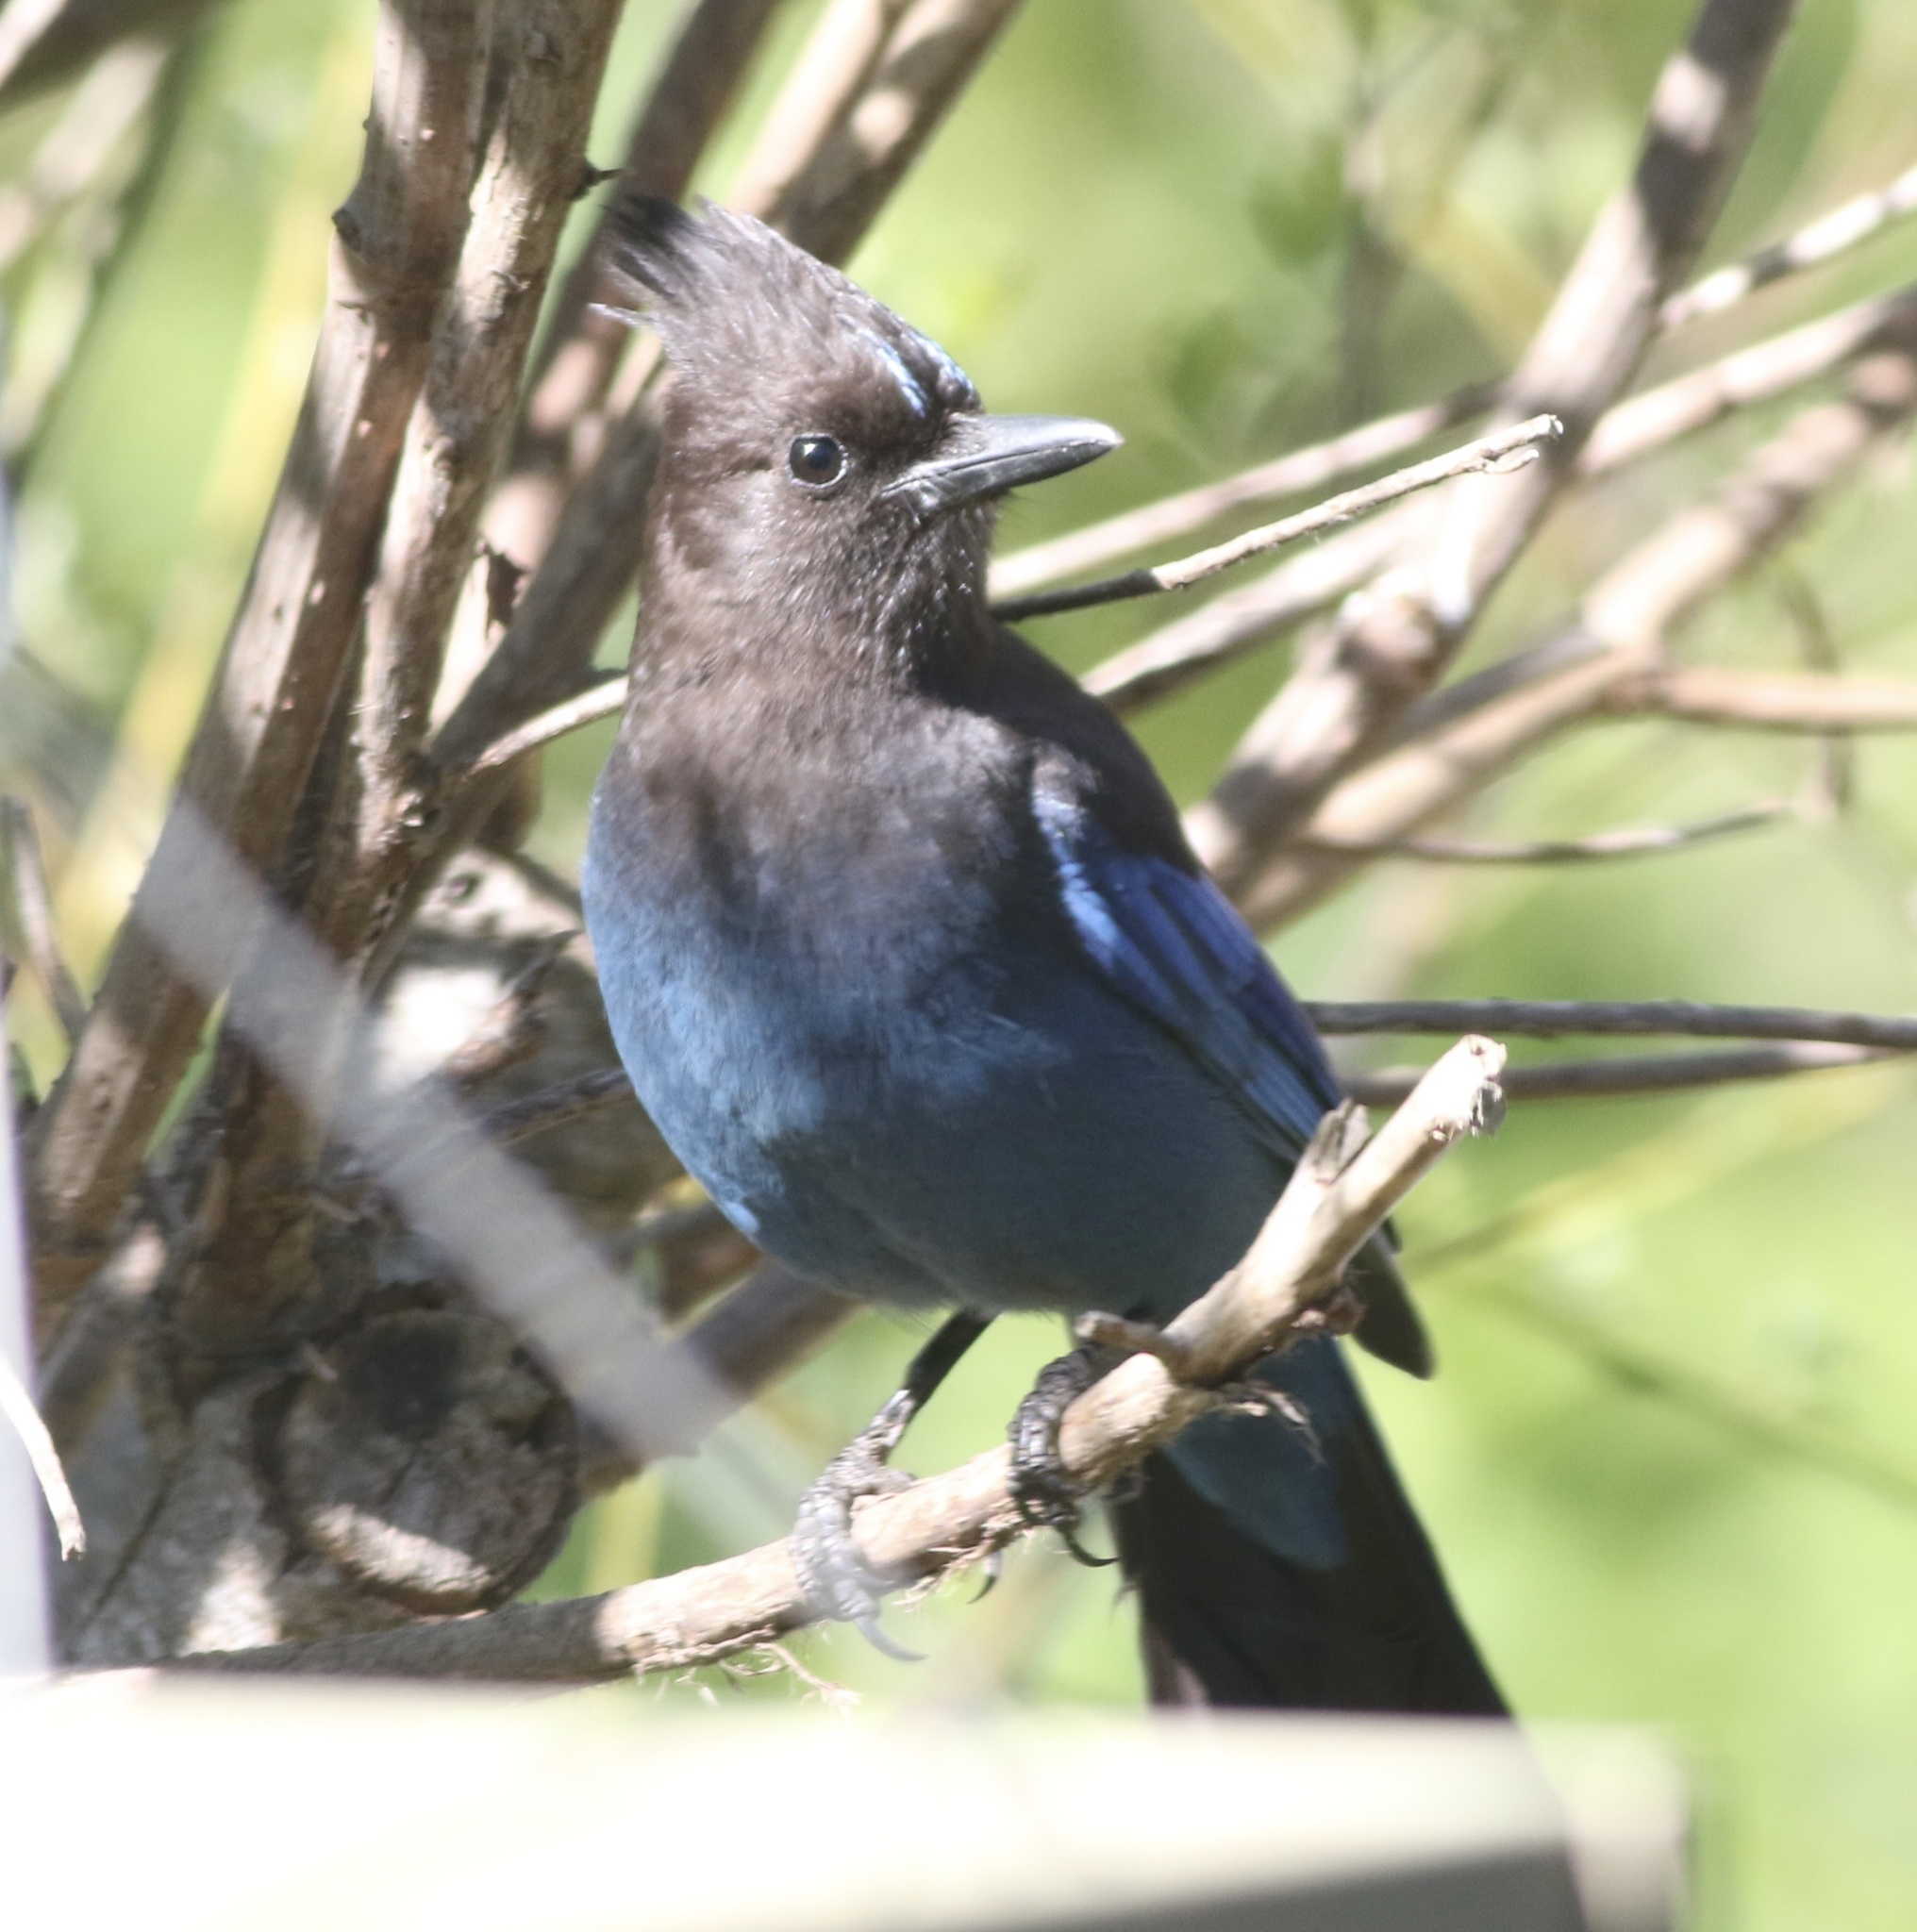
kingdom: Animalia
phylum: Chordata
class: Aves
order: Passeriformes
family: Corvidae
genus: Cyanocitta
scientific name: Cyanocitta stelleri
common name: Steller's jay
